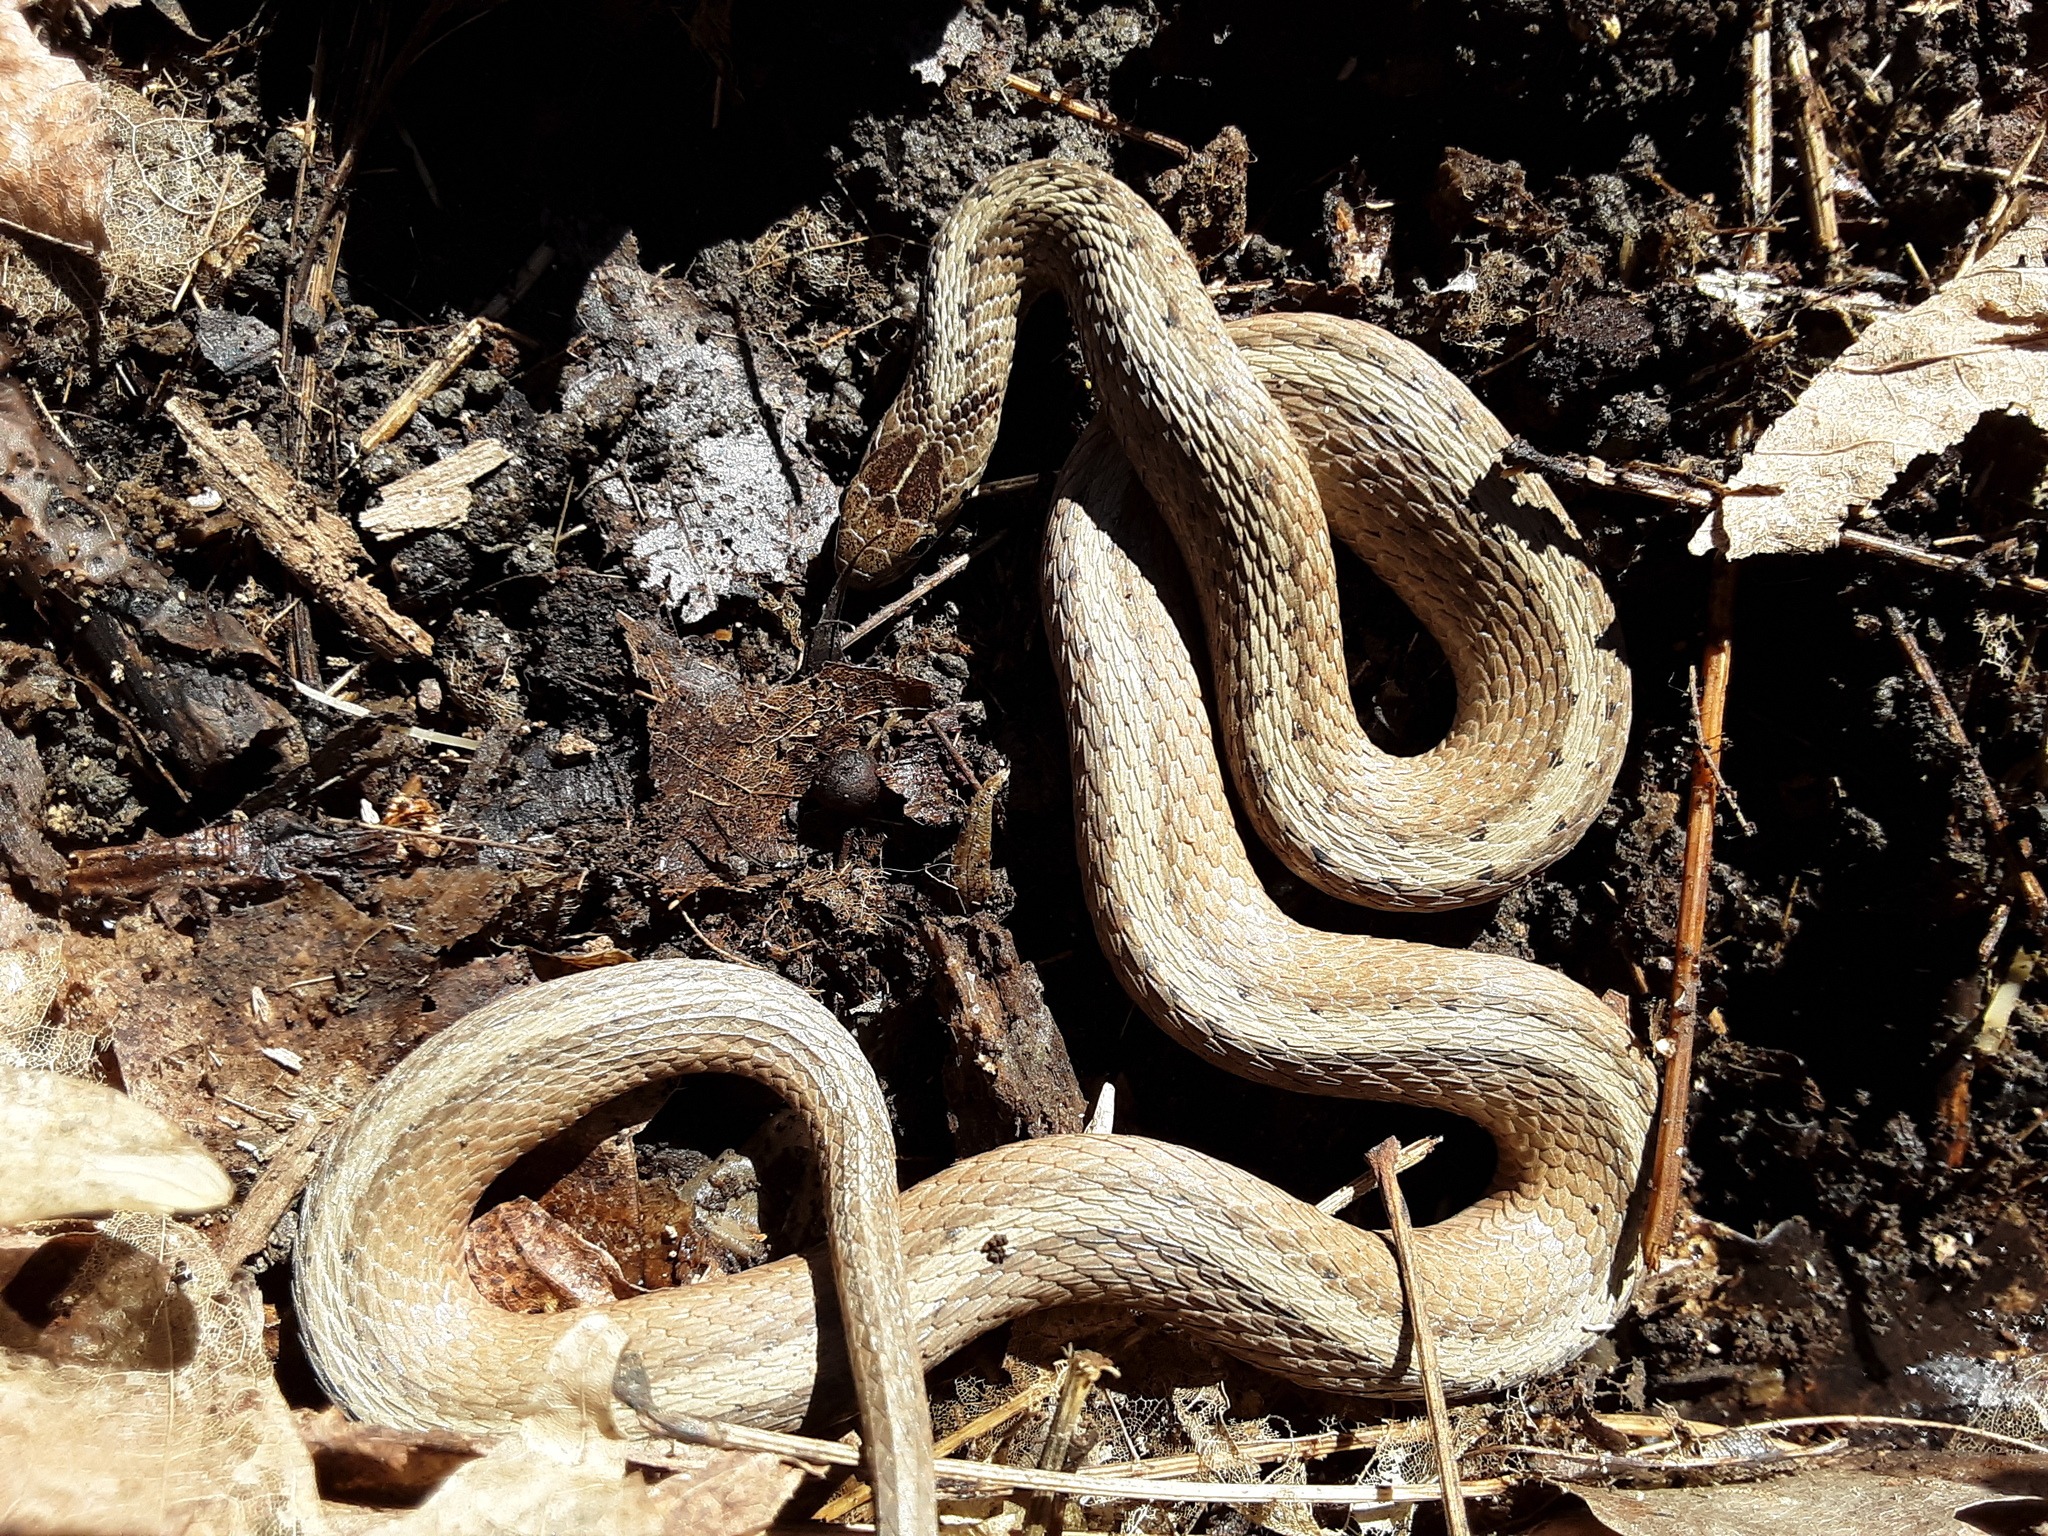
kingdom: Animalia
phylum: Chordata
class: Squamata
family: Colubridae
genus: Storeria
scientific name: Storeria dekayi
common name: (dekay’s) brown snake
